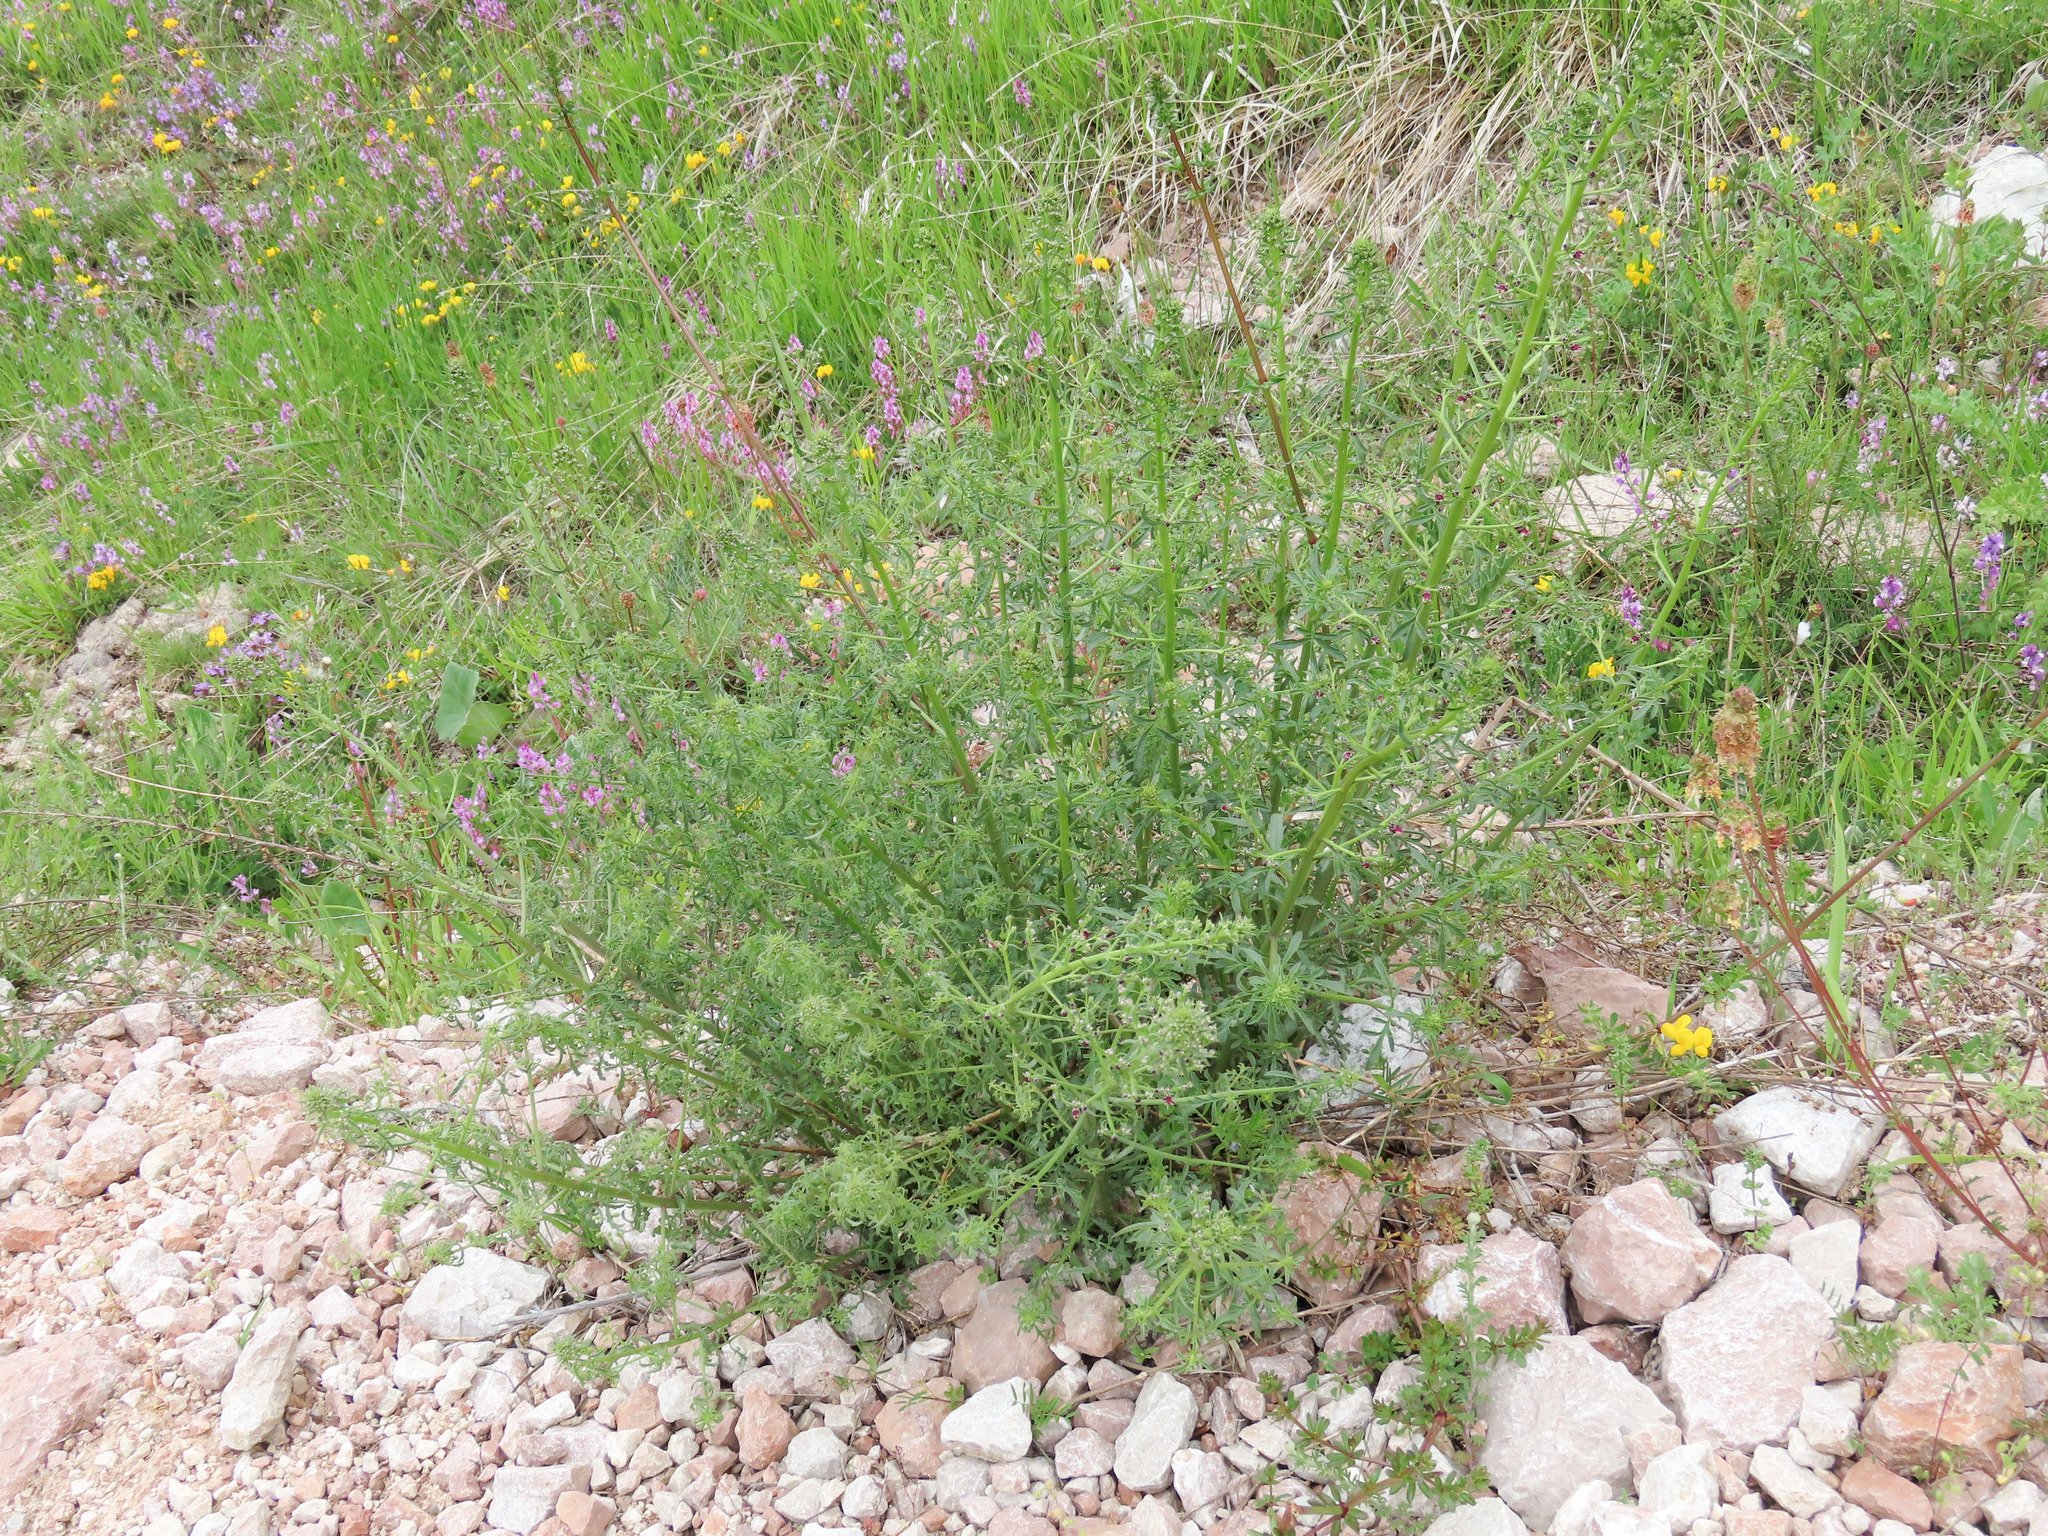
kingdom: Plantae
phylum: Tracheophyta
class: Magnoliopsida
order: Lamiales
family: Scrophulariaceae
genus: Scrophularia
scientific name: Scrophularia canina
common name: French figwort
